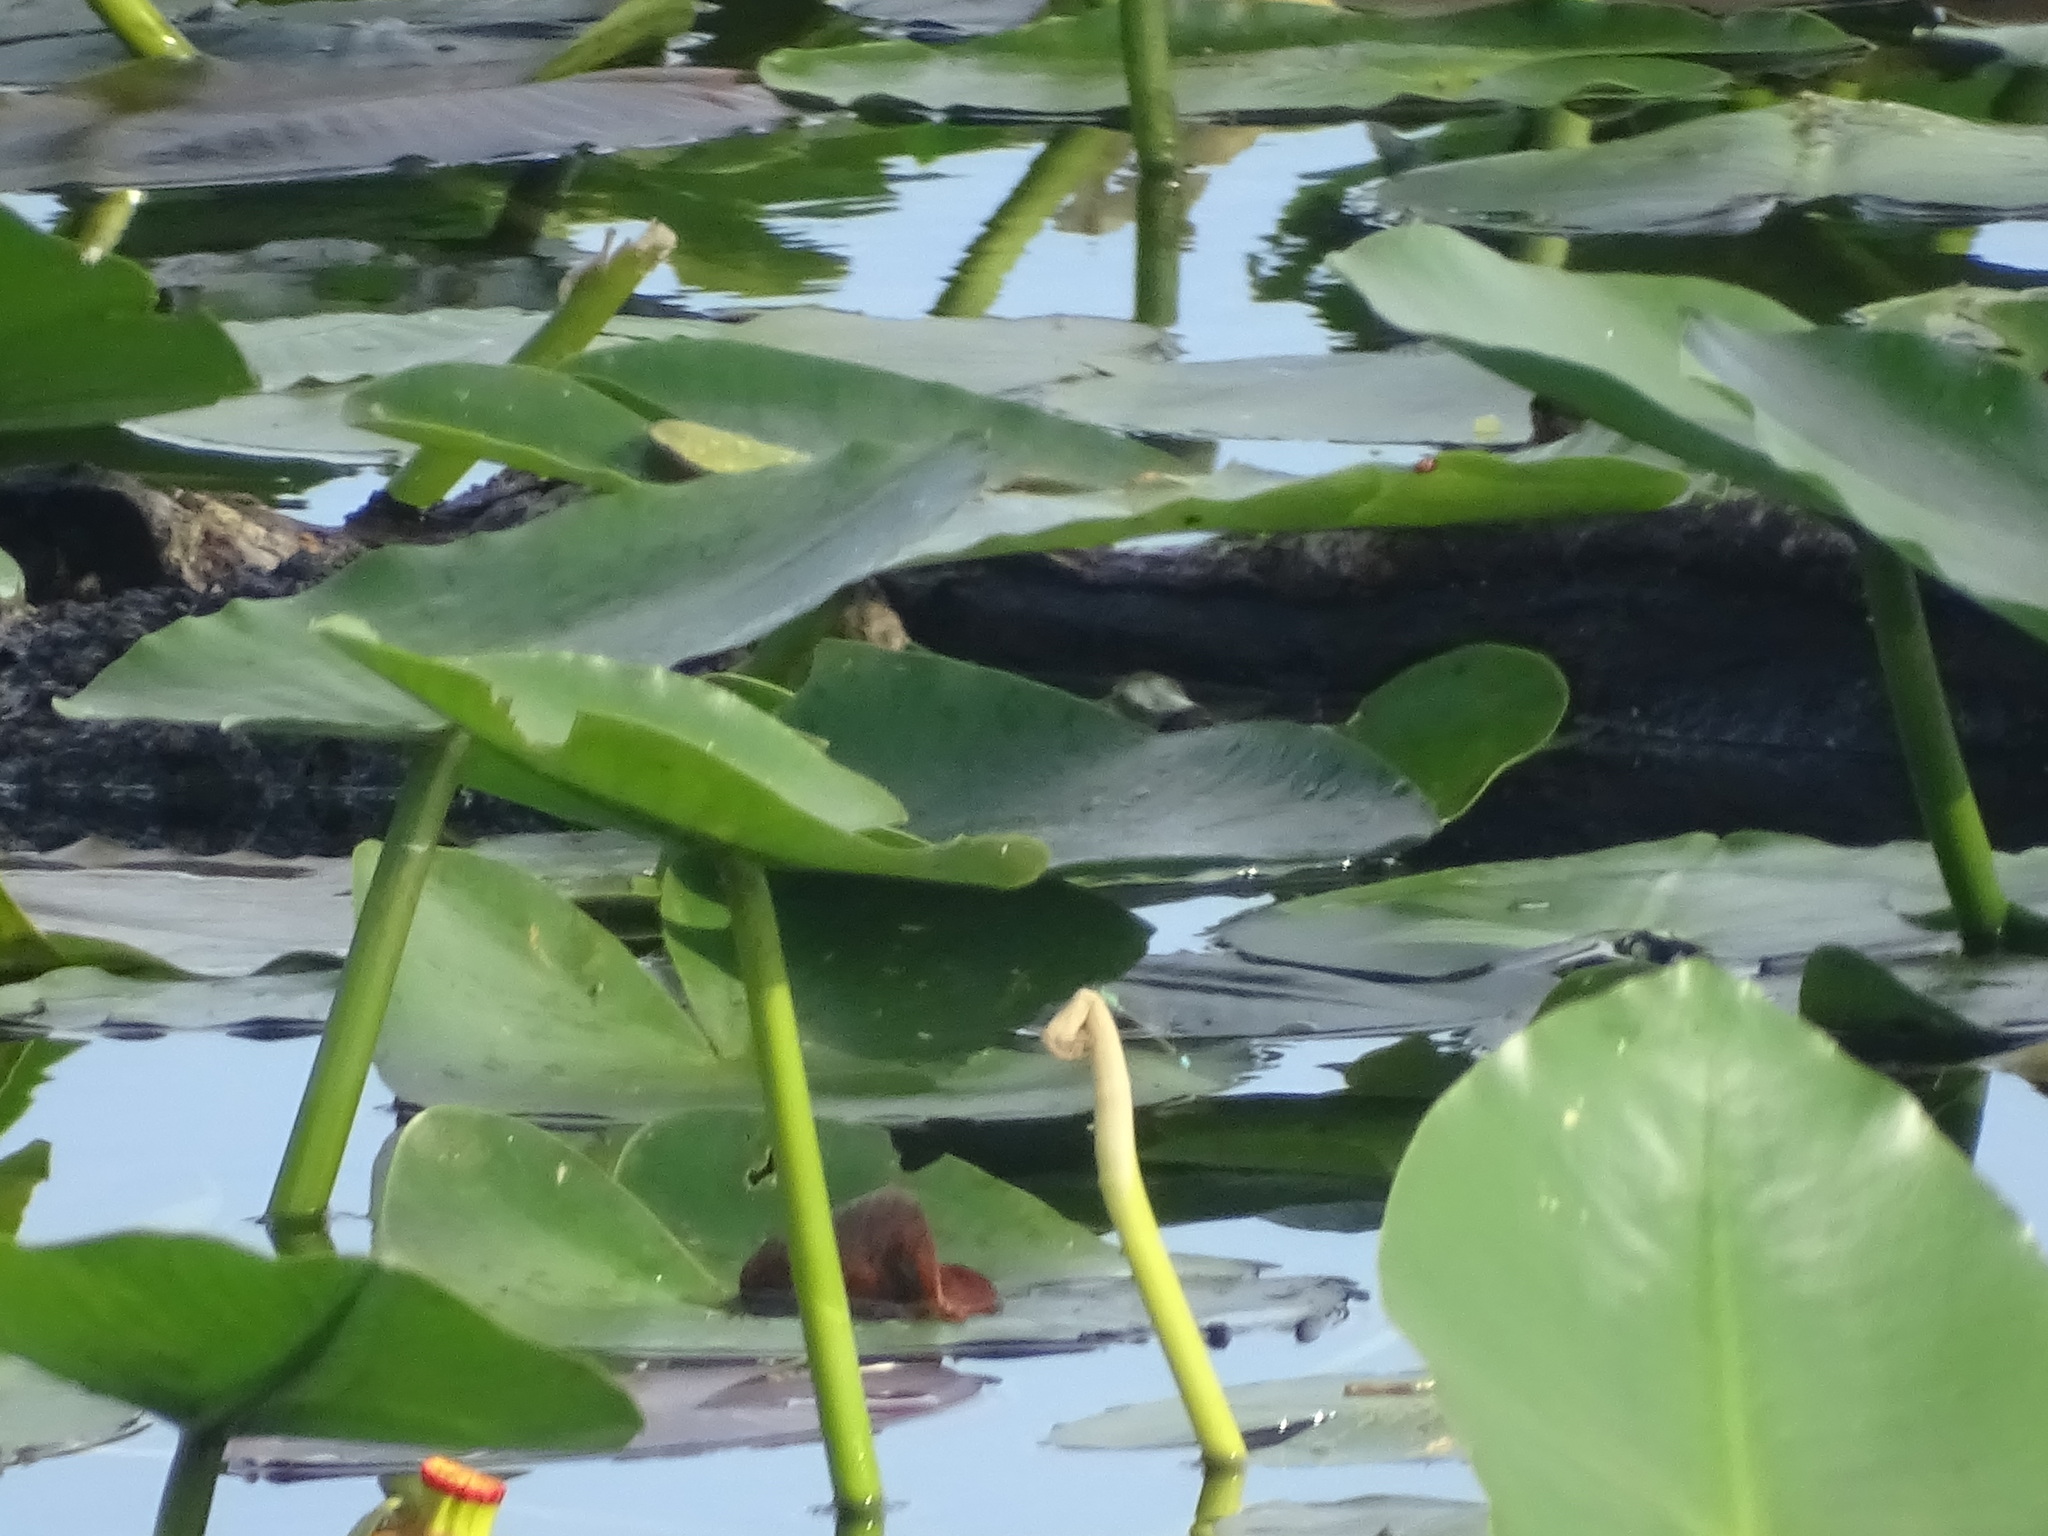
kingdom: Plantae
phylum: Tracheophyta
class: Magnoliopsida
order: Nymphaeales
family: Nymphaeaceae
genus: Nuphar
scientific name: Nuphar advena
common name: Spatter-dock
